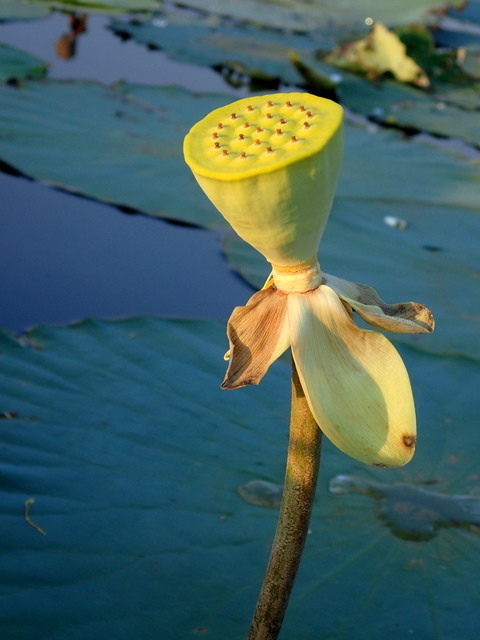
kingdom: Plantae
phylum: Tracheophyta
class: Magnoliopsida
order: Proteales
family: Nelumbonaceae
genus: Nelumbo
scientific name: Nelumbo lutea
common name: American lotus
